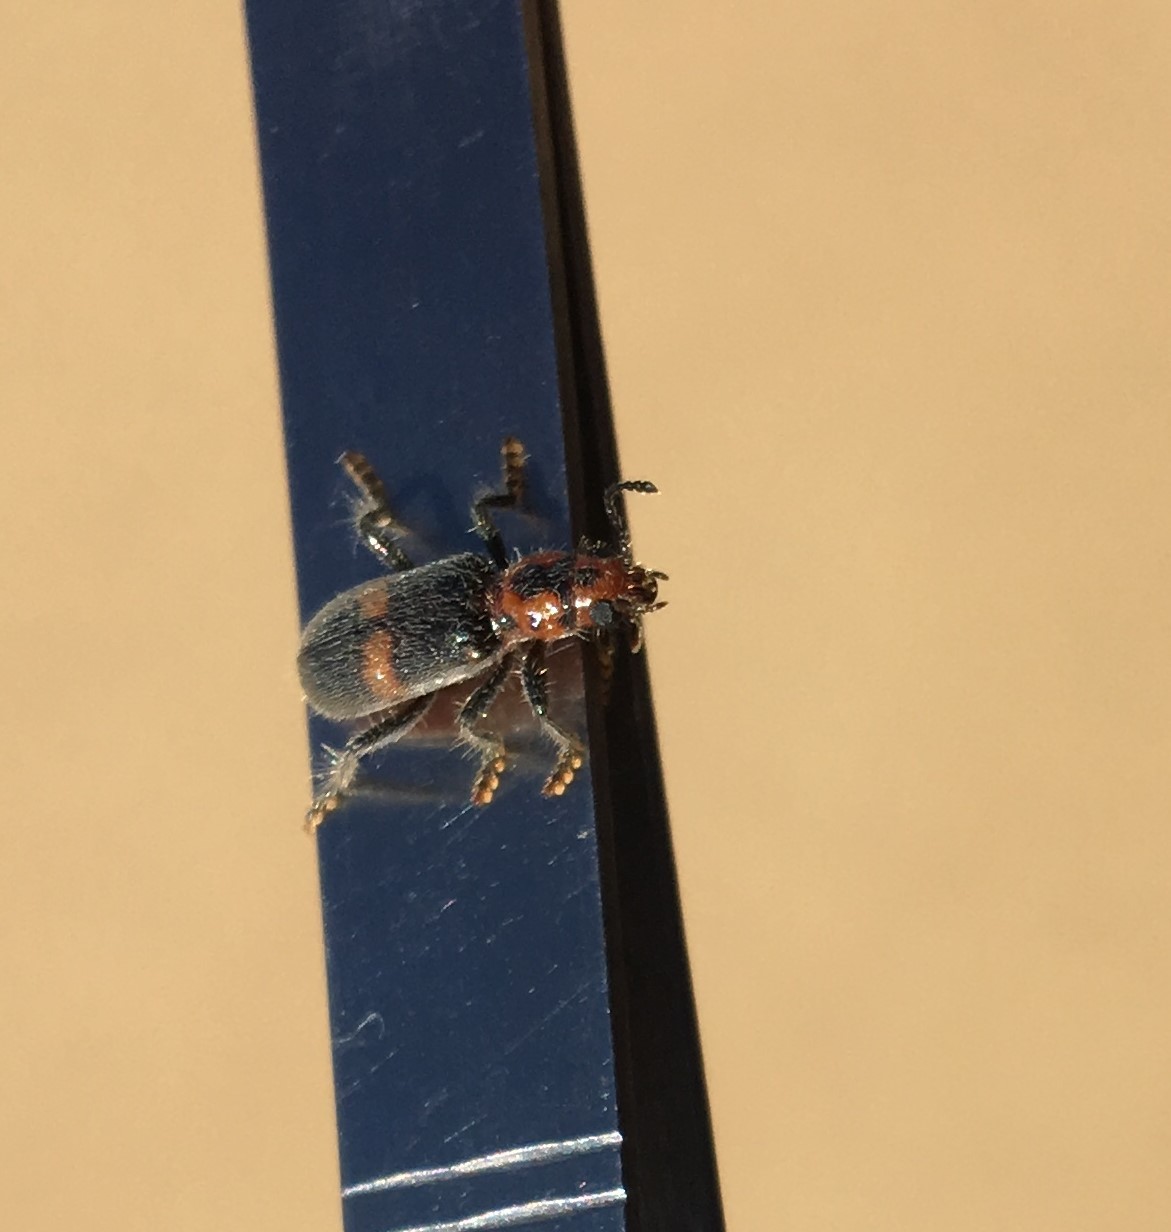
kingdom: Animalia
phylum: Arthropoda
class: Insecta
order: Coleoptera
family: Cleridae
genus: Orthrius
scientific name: Orthrius
